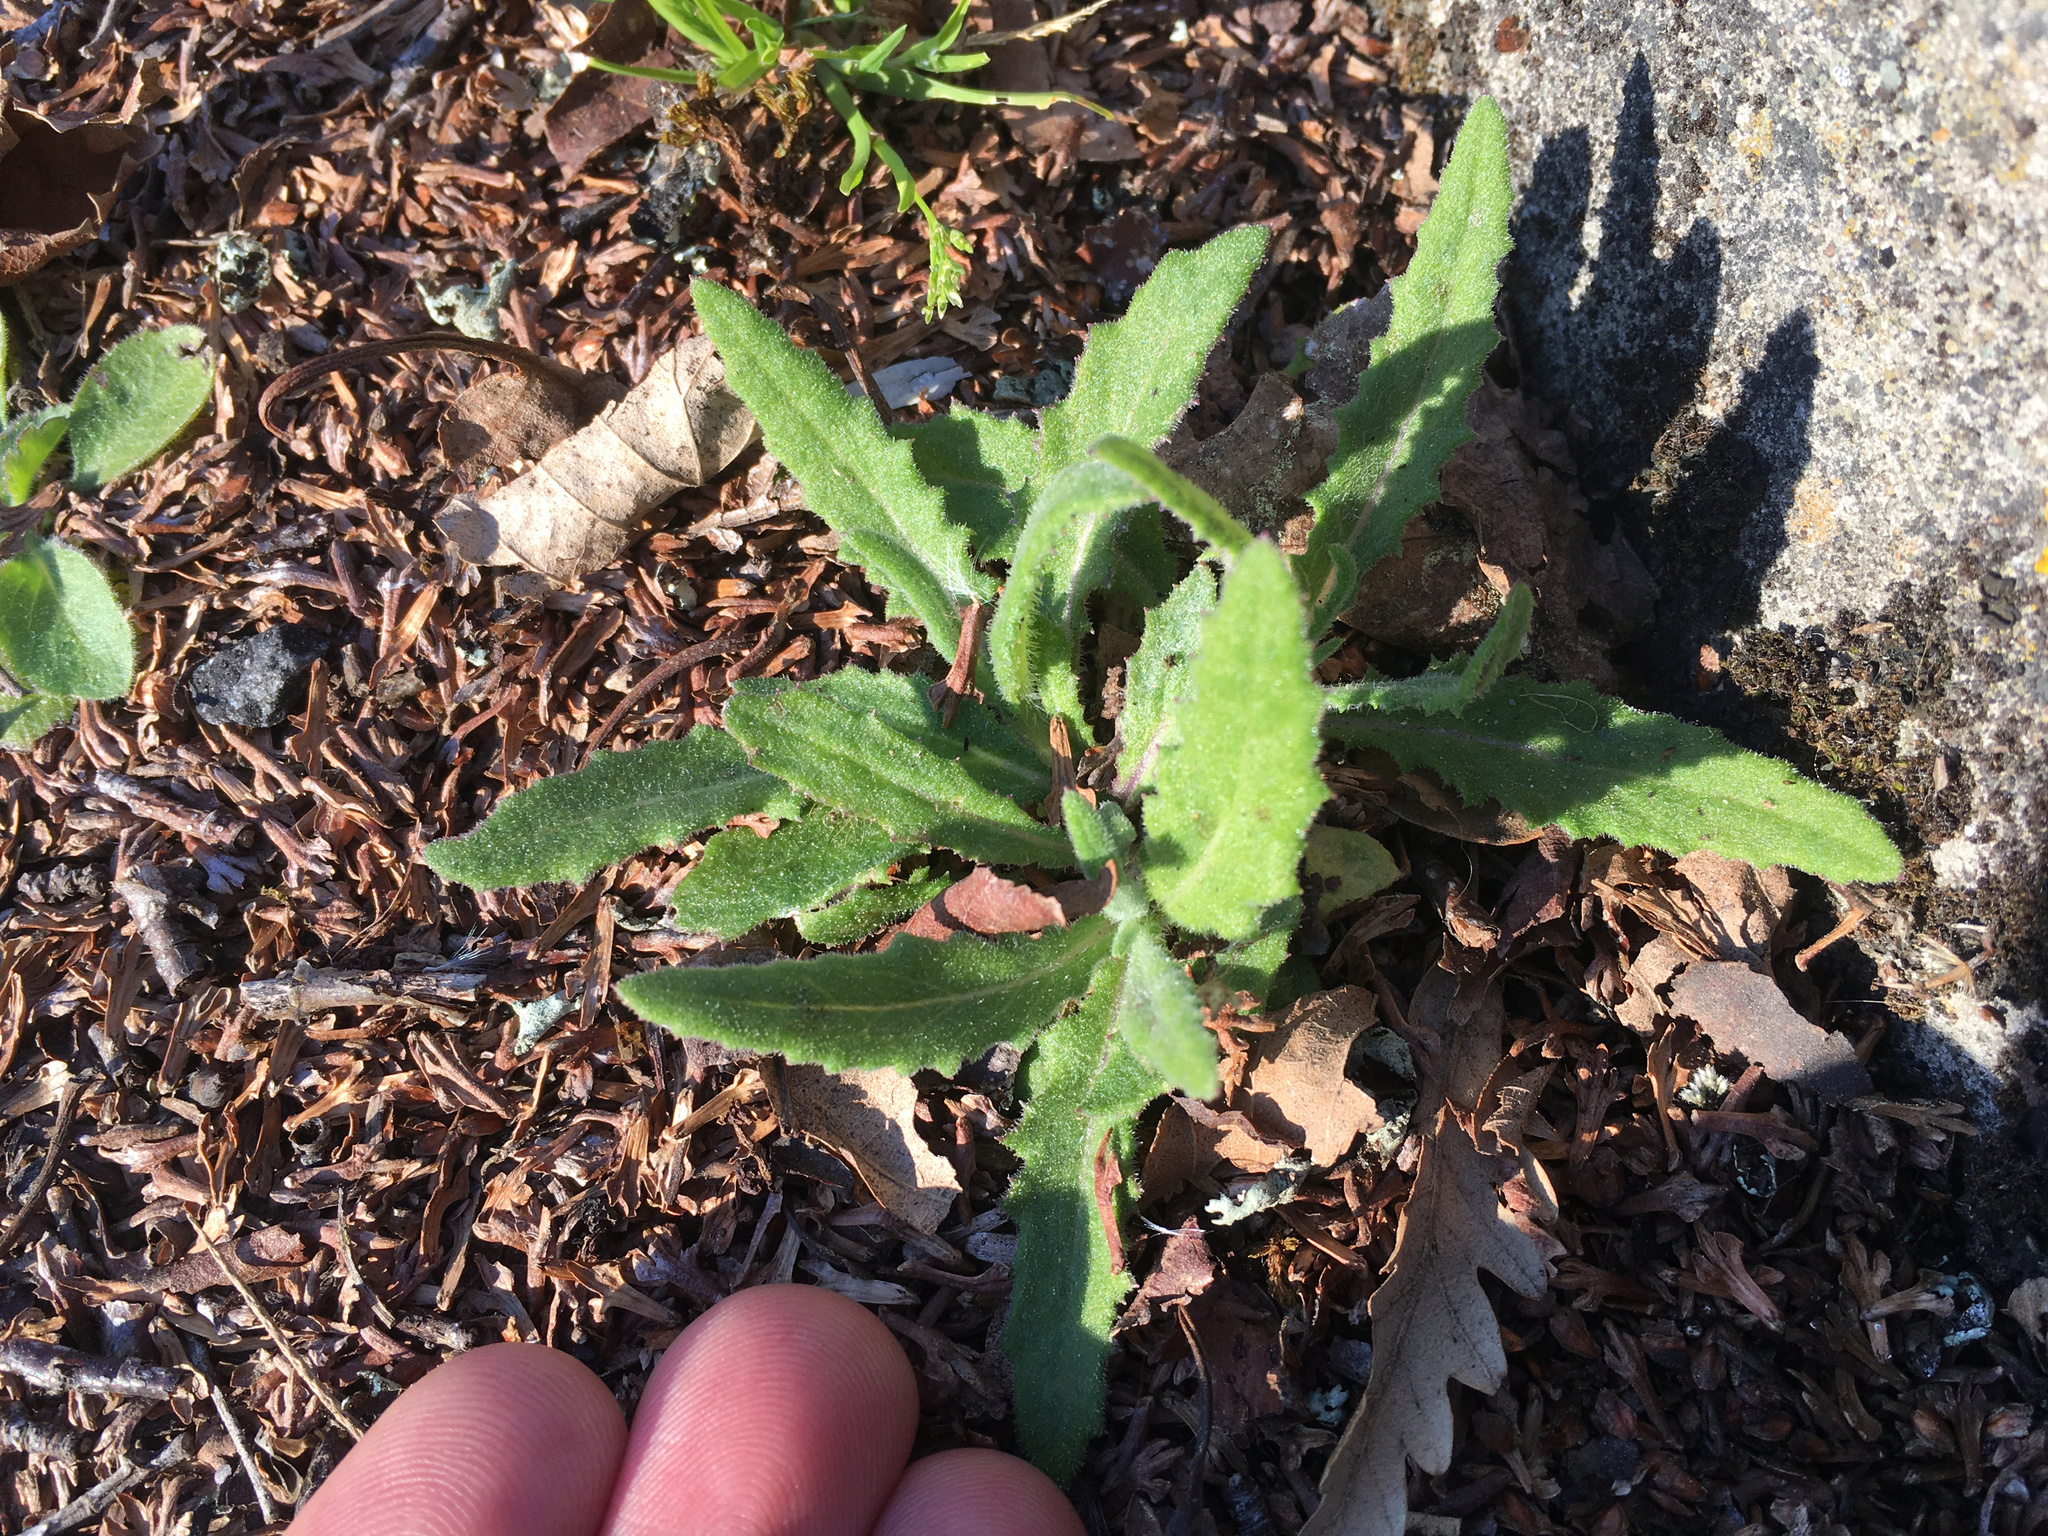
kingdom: Plantae
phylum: Tracheophyta
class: Magnoliopsida
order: Asterales
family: Asteraceae
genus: Senecio
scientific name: Senecio minimus
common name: Toothed fireweed
